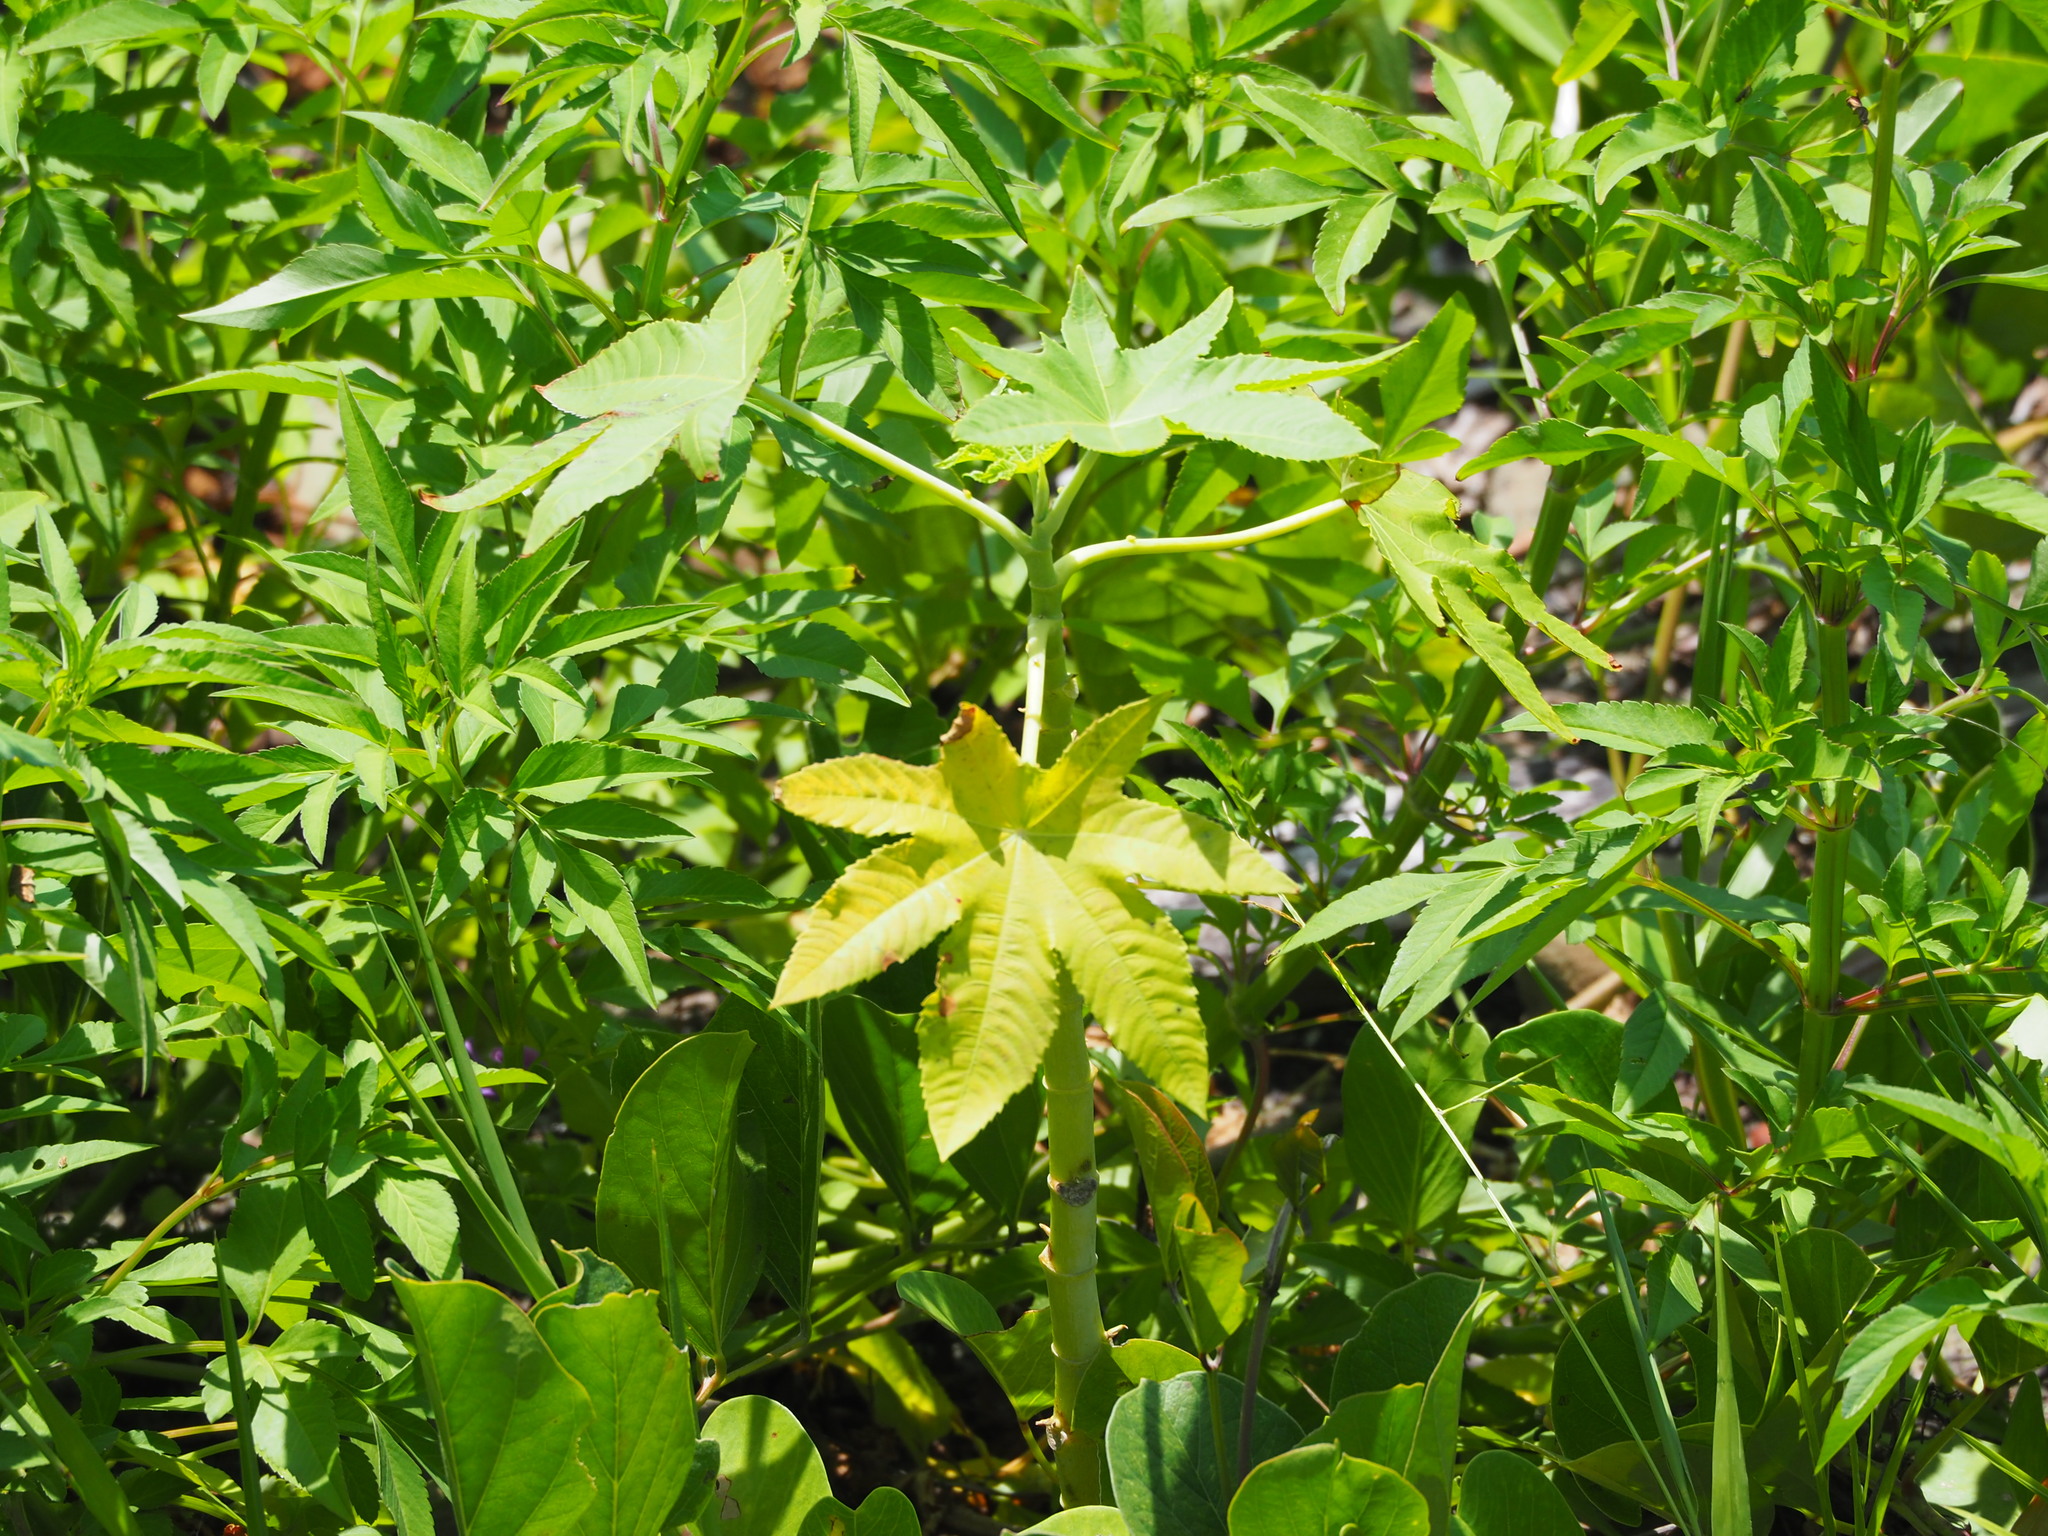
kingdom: Plantae
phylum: Tracheophyta
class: Magnoliopsida
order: Malpighiales
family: Euphorbiaceae
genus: Ricinus
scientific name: Ricinus communis
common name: Castor-oil-plant
